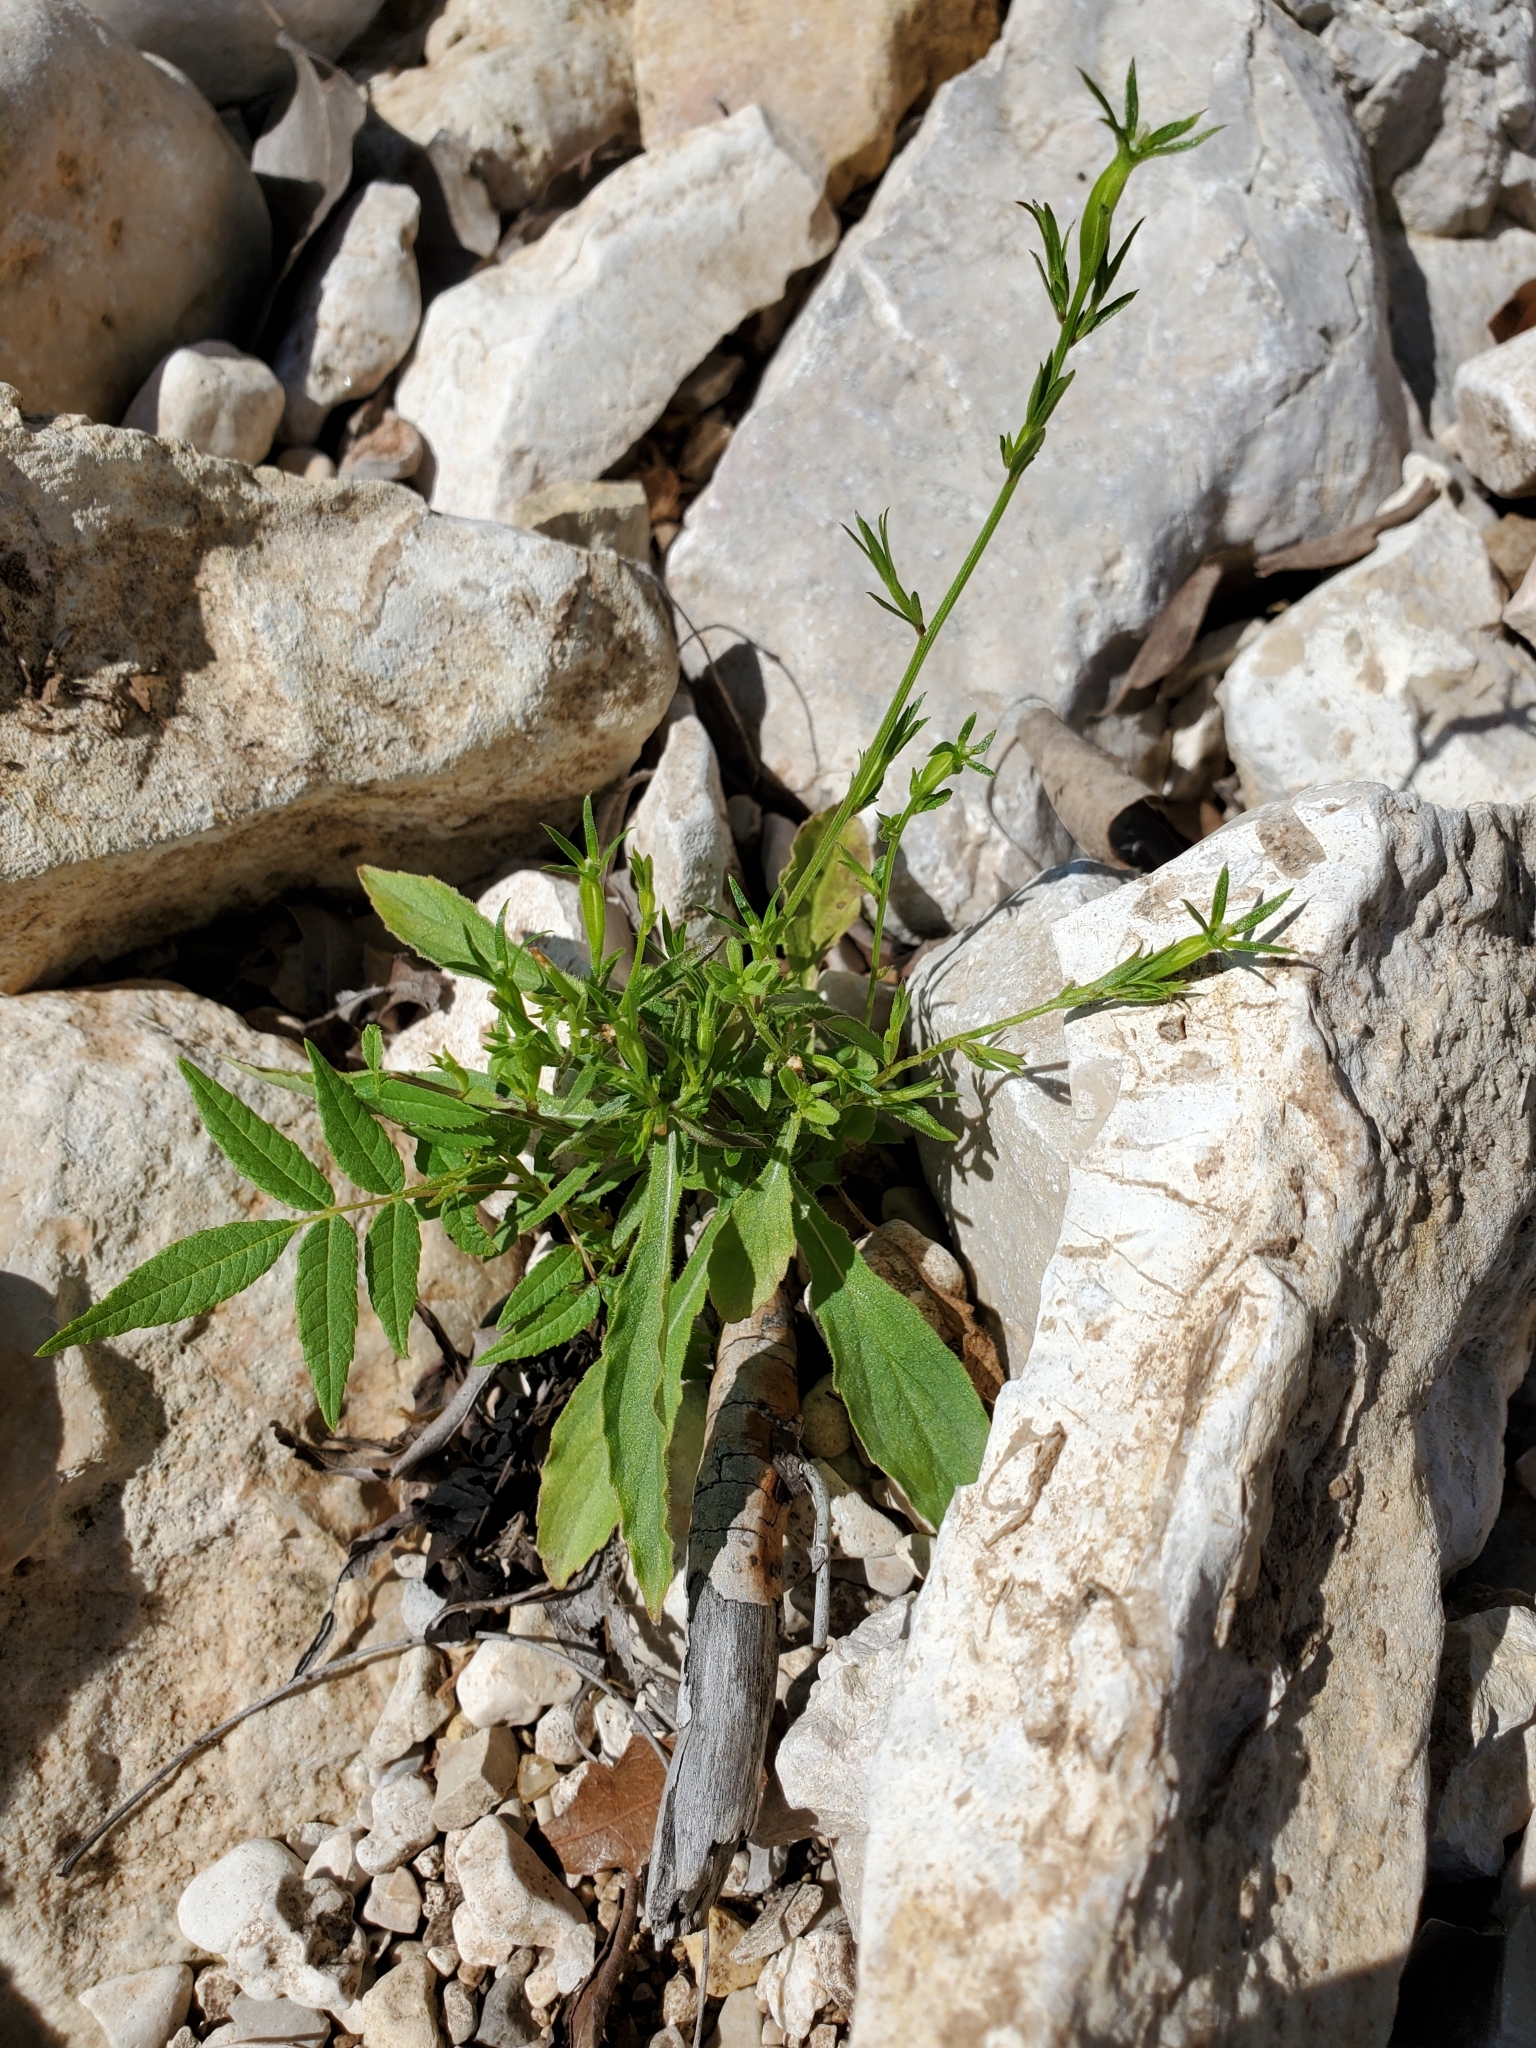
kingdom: Plantae
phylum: Tracheophyta
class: Magnoliopsida
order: Asterales
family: Campanulaceae
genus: Triodanis
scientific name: Triodanis coloradoensis
